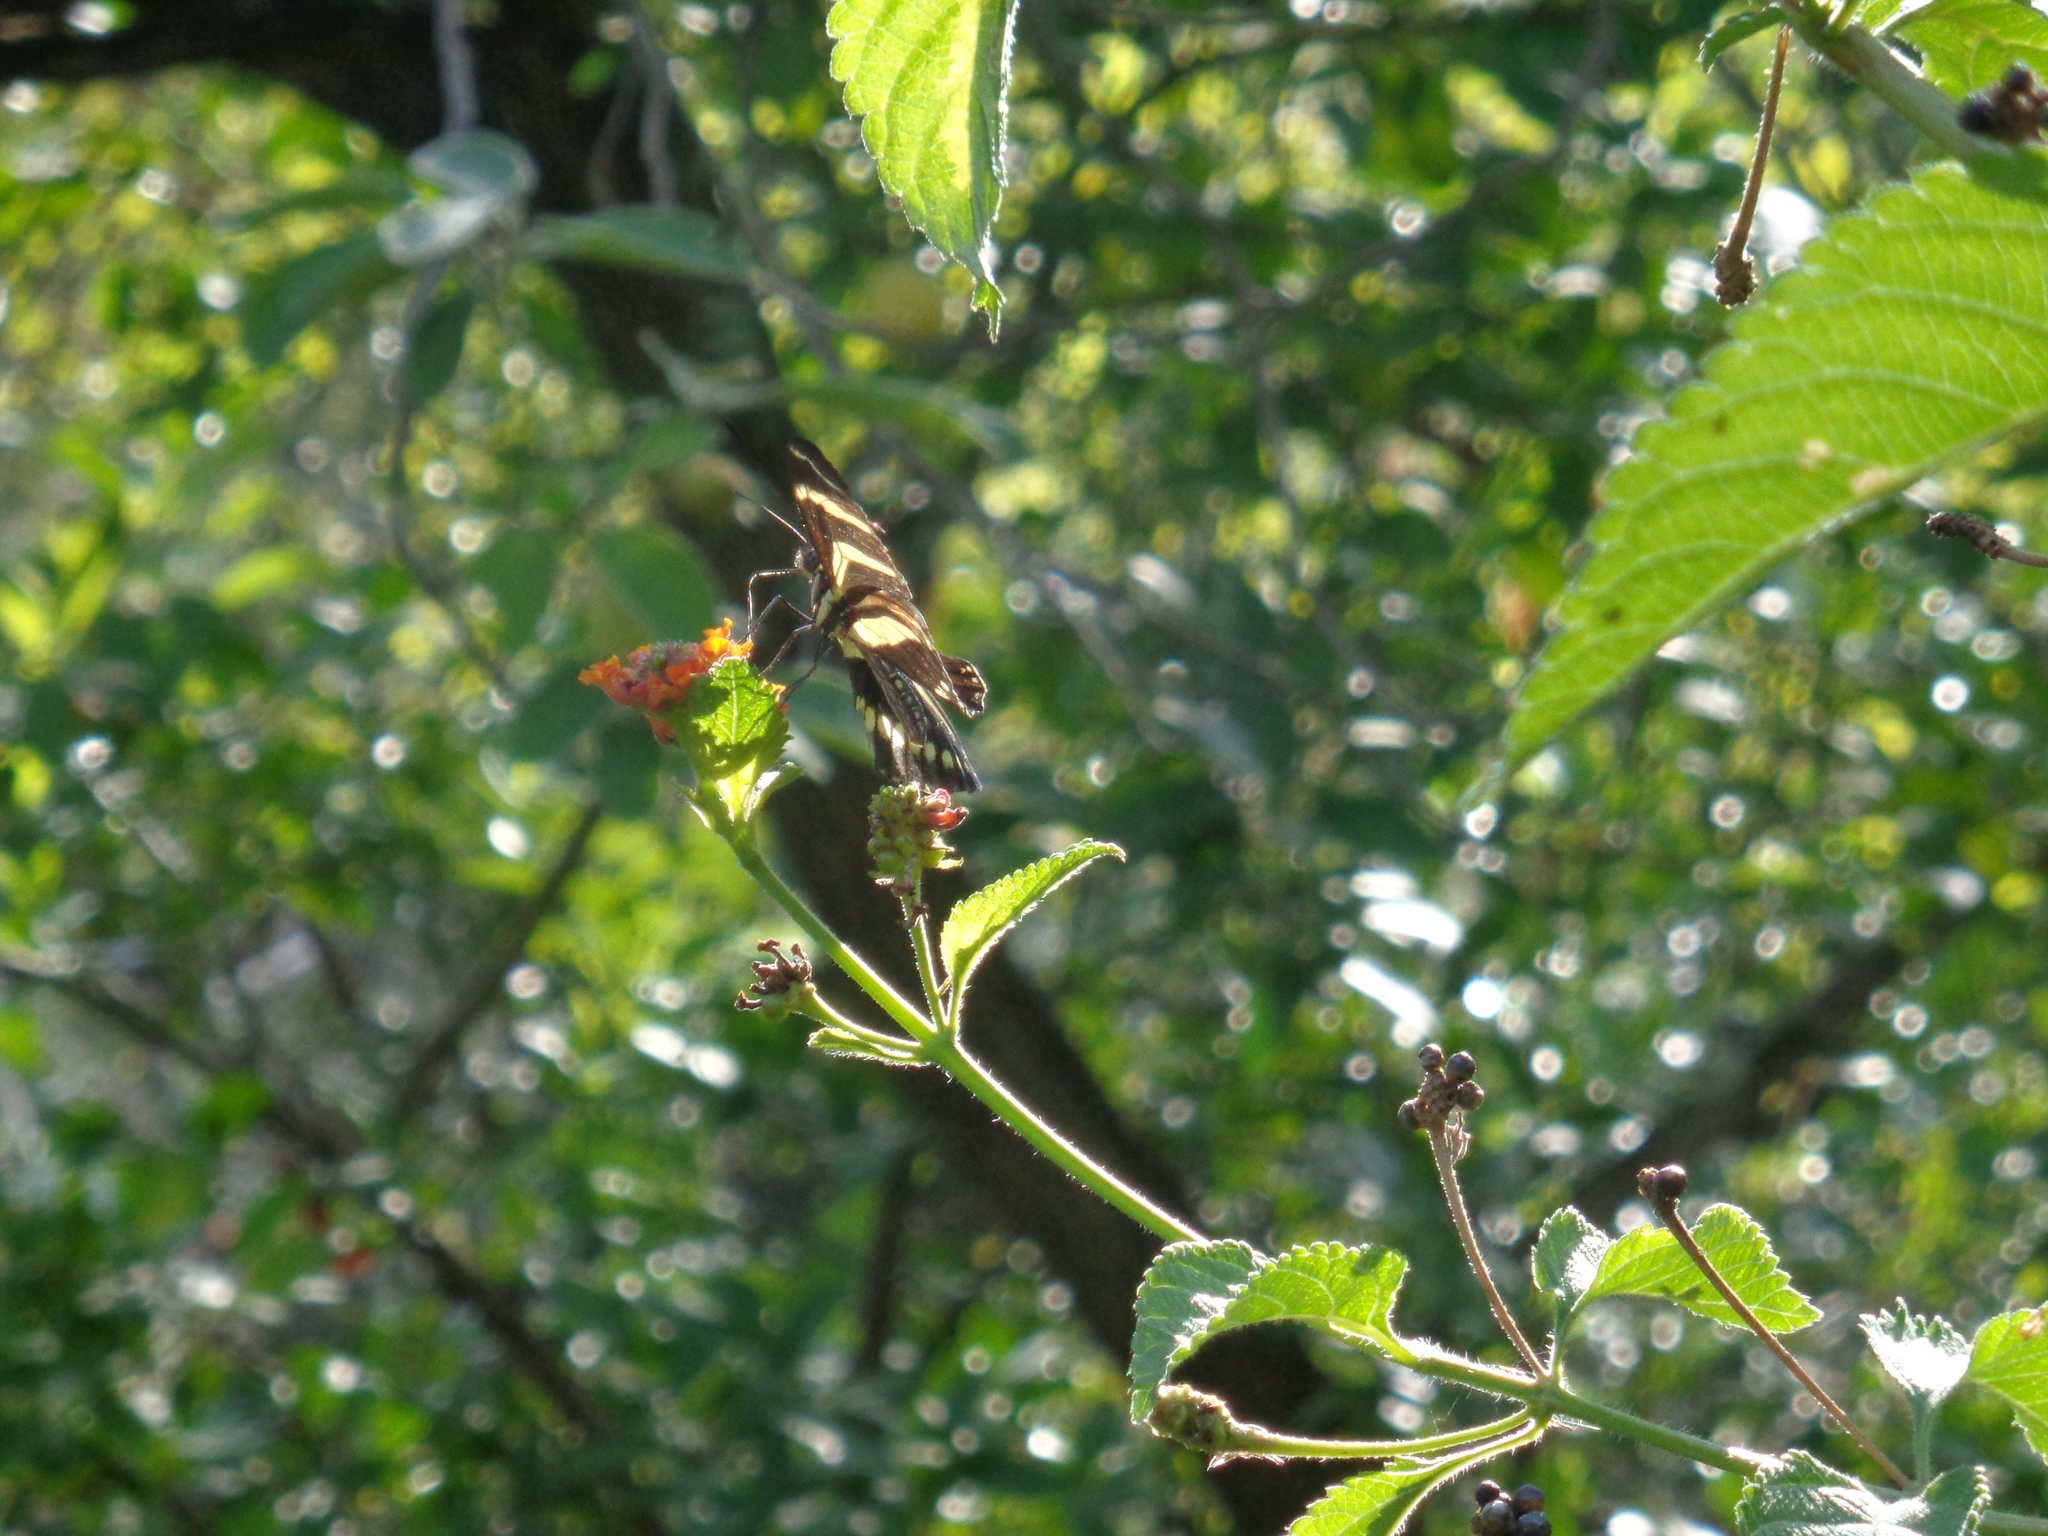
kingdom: Animalia
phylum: Arthropoda
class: Insecta
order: Lepidoptera
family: Nymphalidae
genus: Heliconius
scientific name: Heliconius charithonia
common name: Zebra long wing
